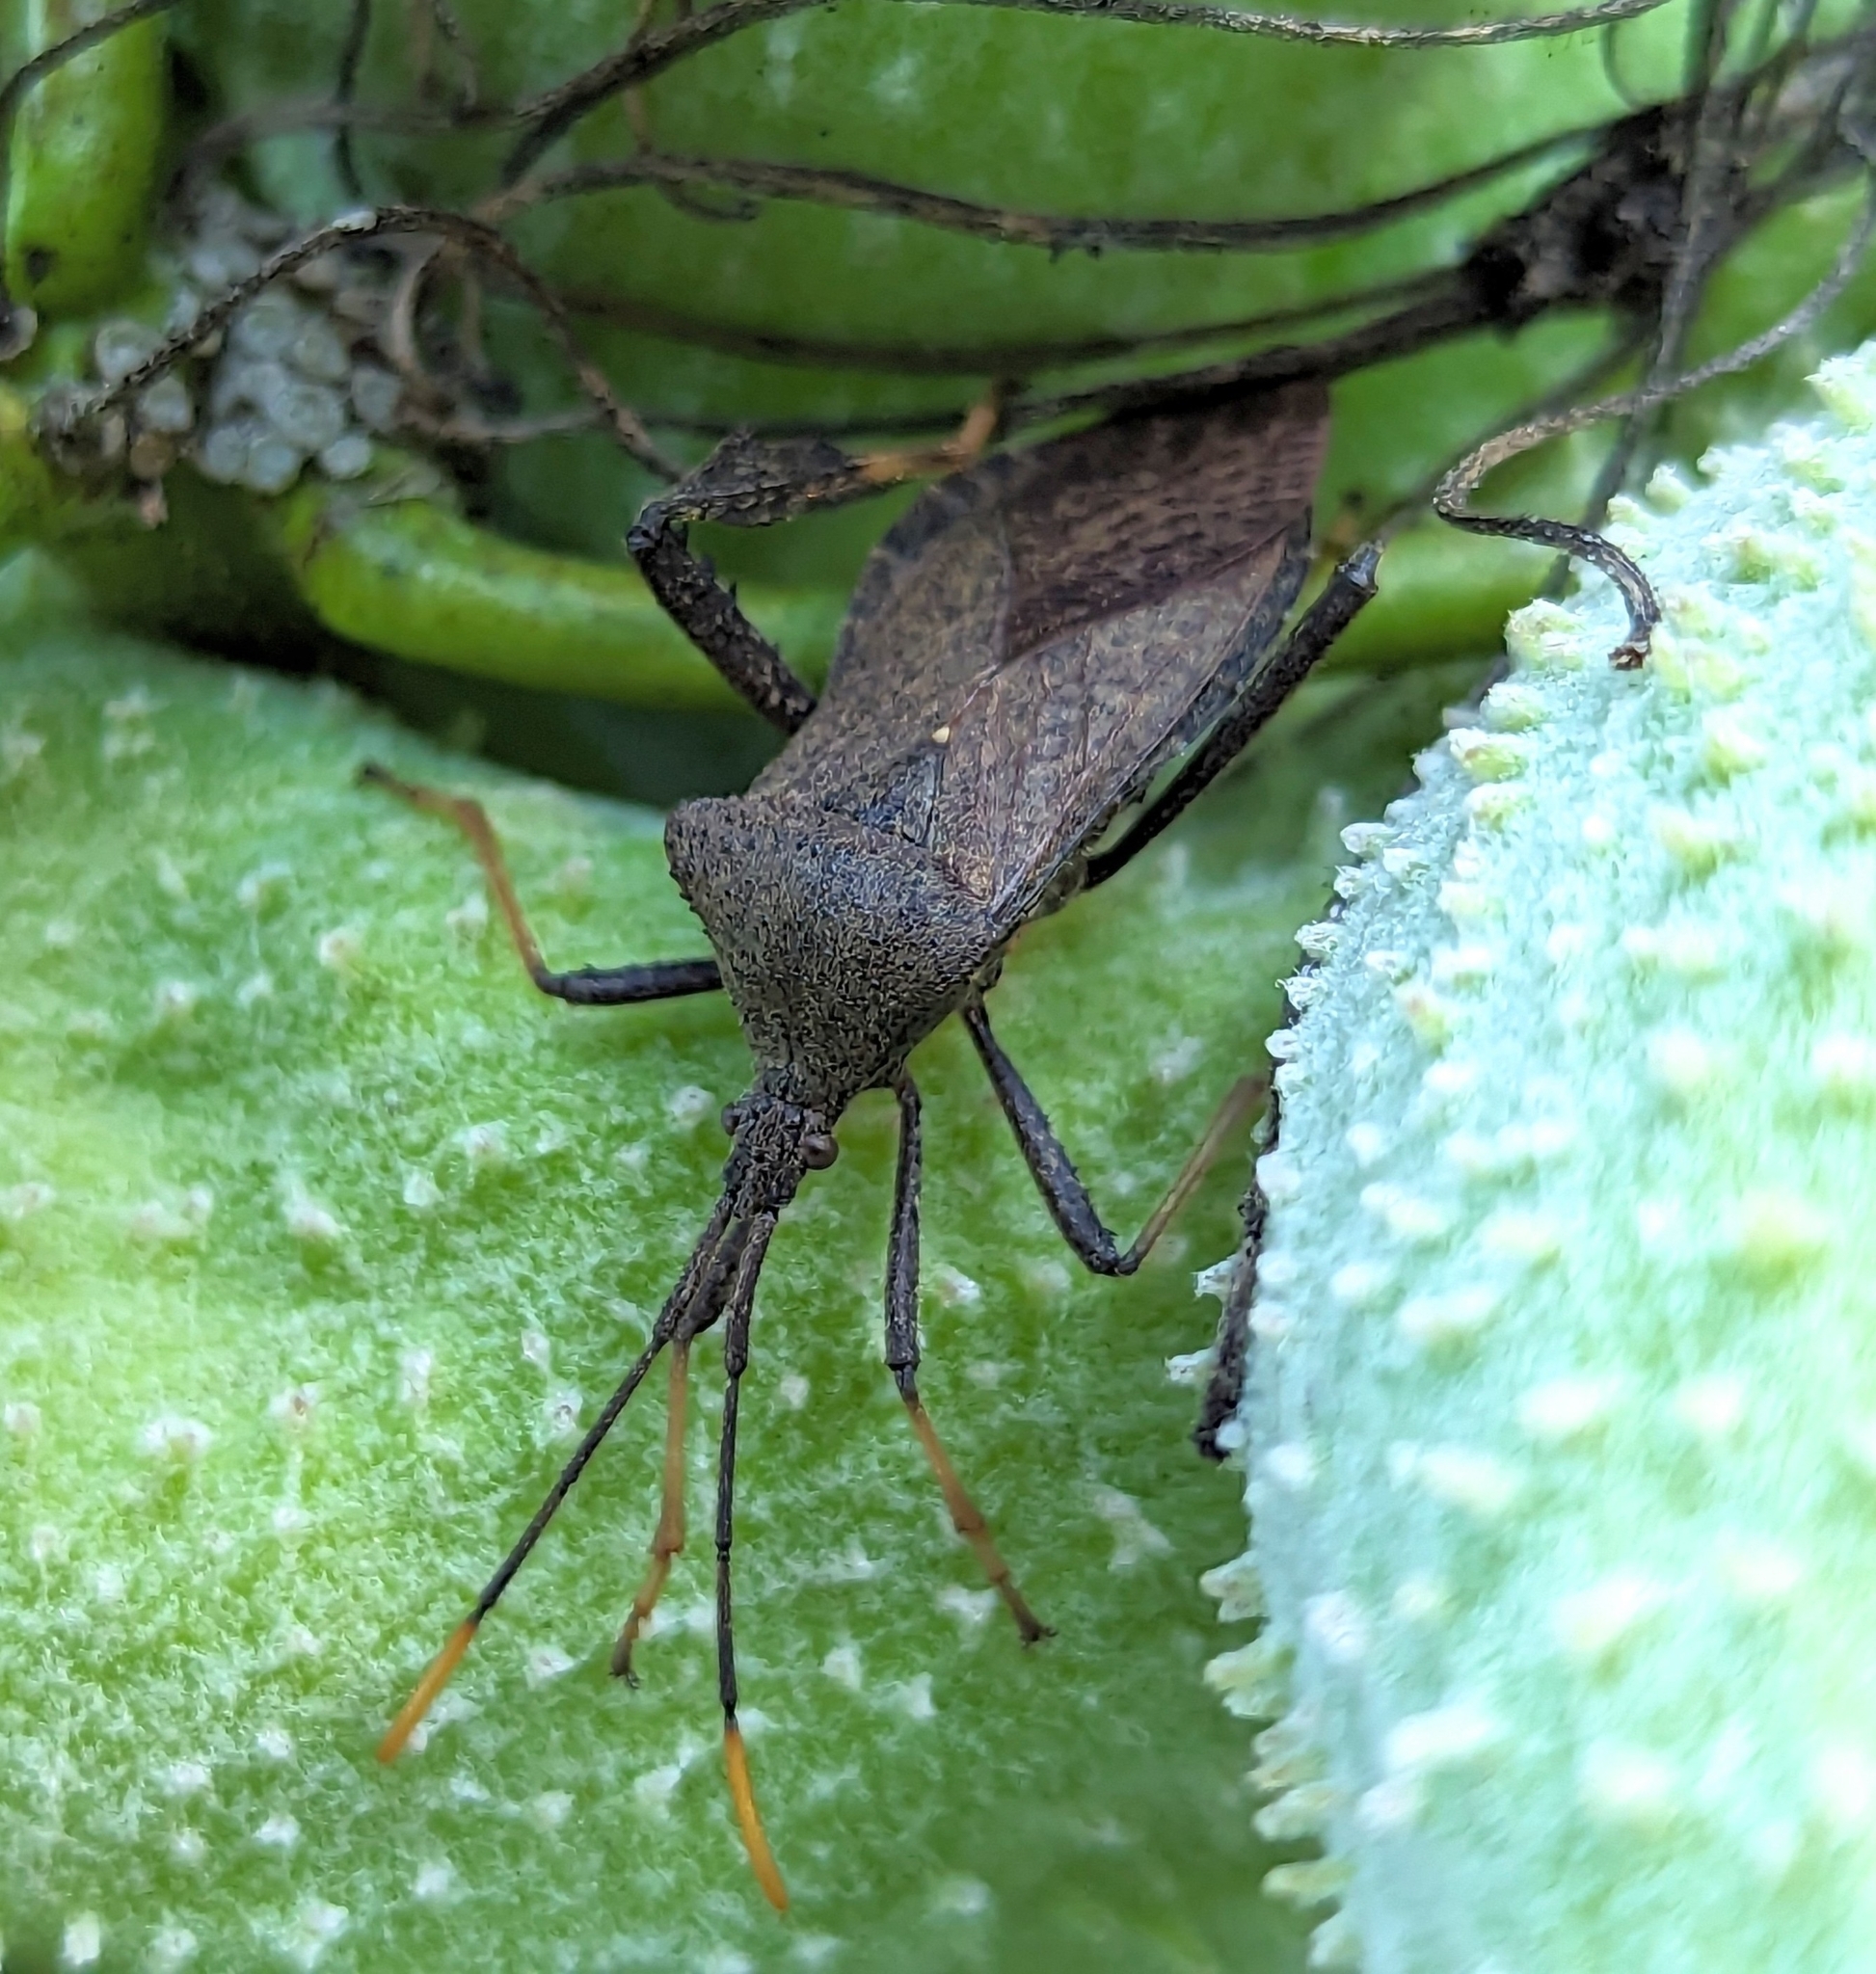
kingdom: Animalia
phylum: Arthropoda
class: Insecta
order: Hemiptera
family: Coreidae
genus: Acanthocephala
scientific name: Acanthocephala terminalis
